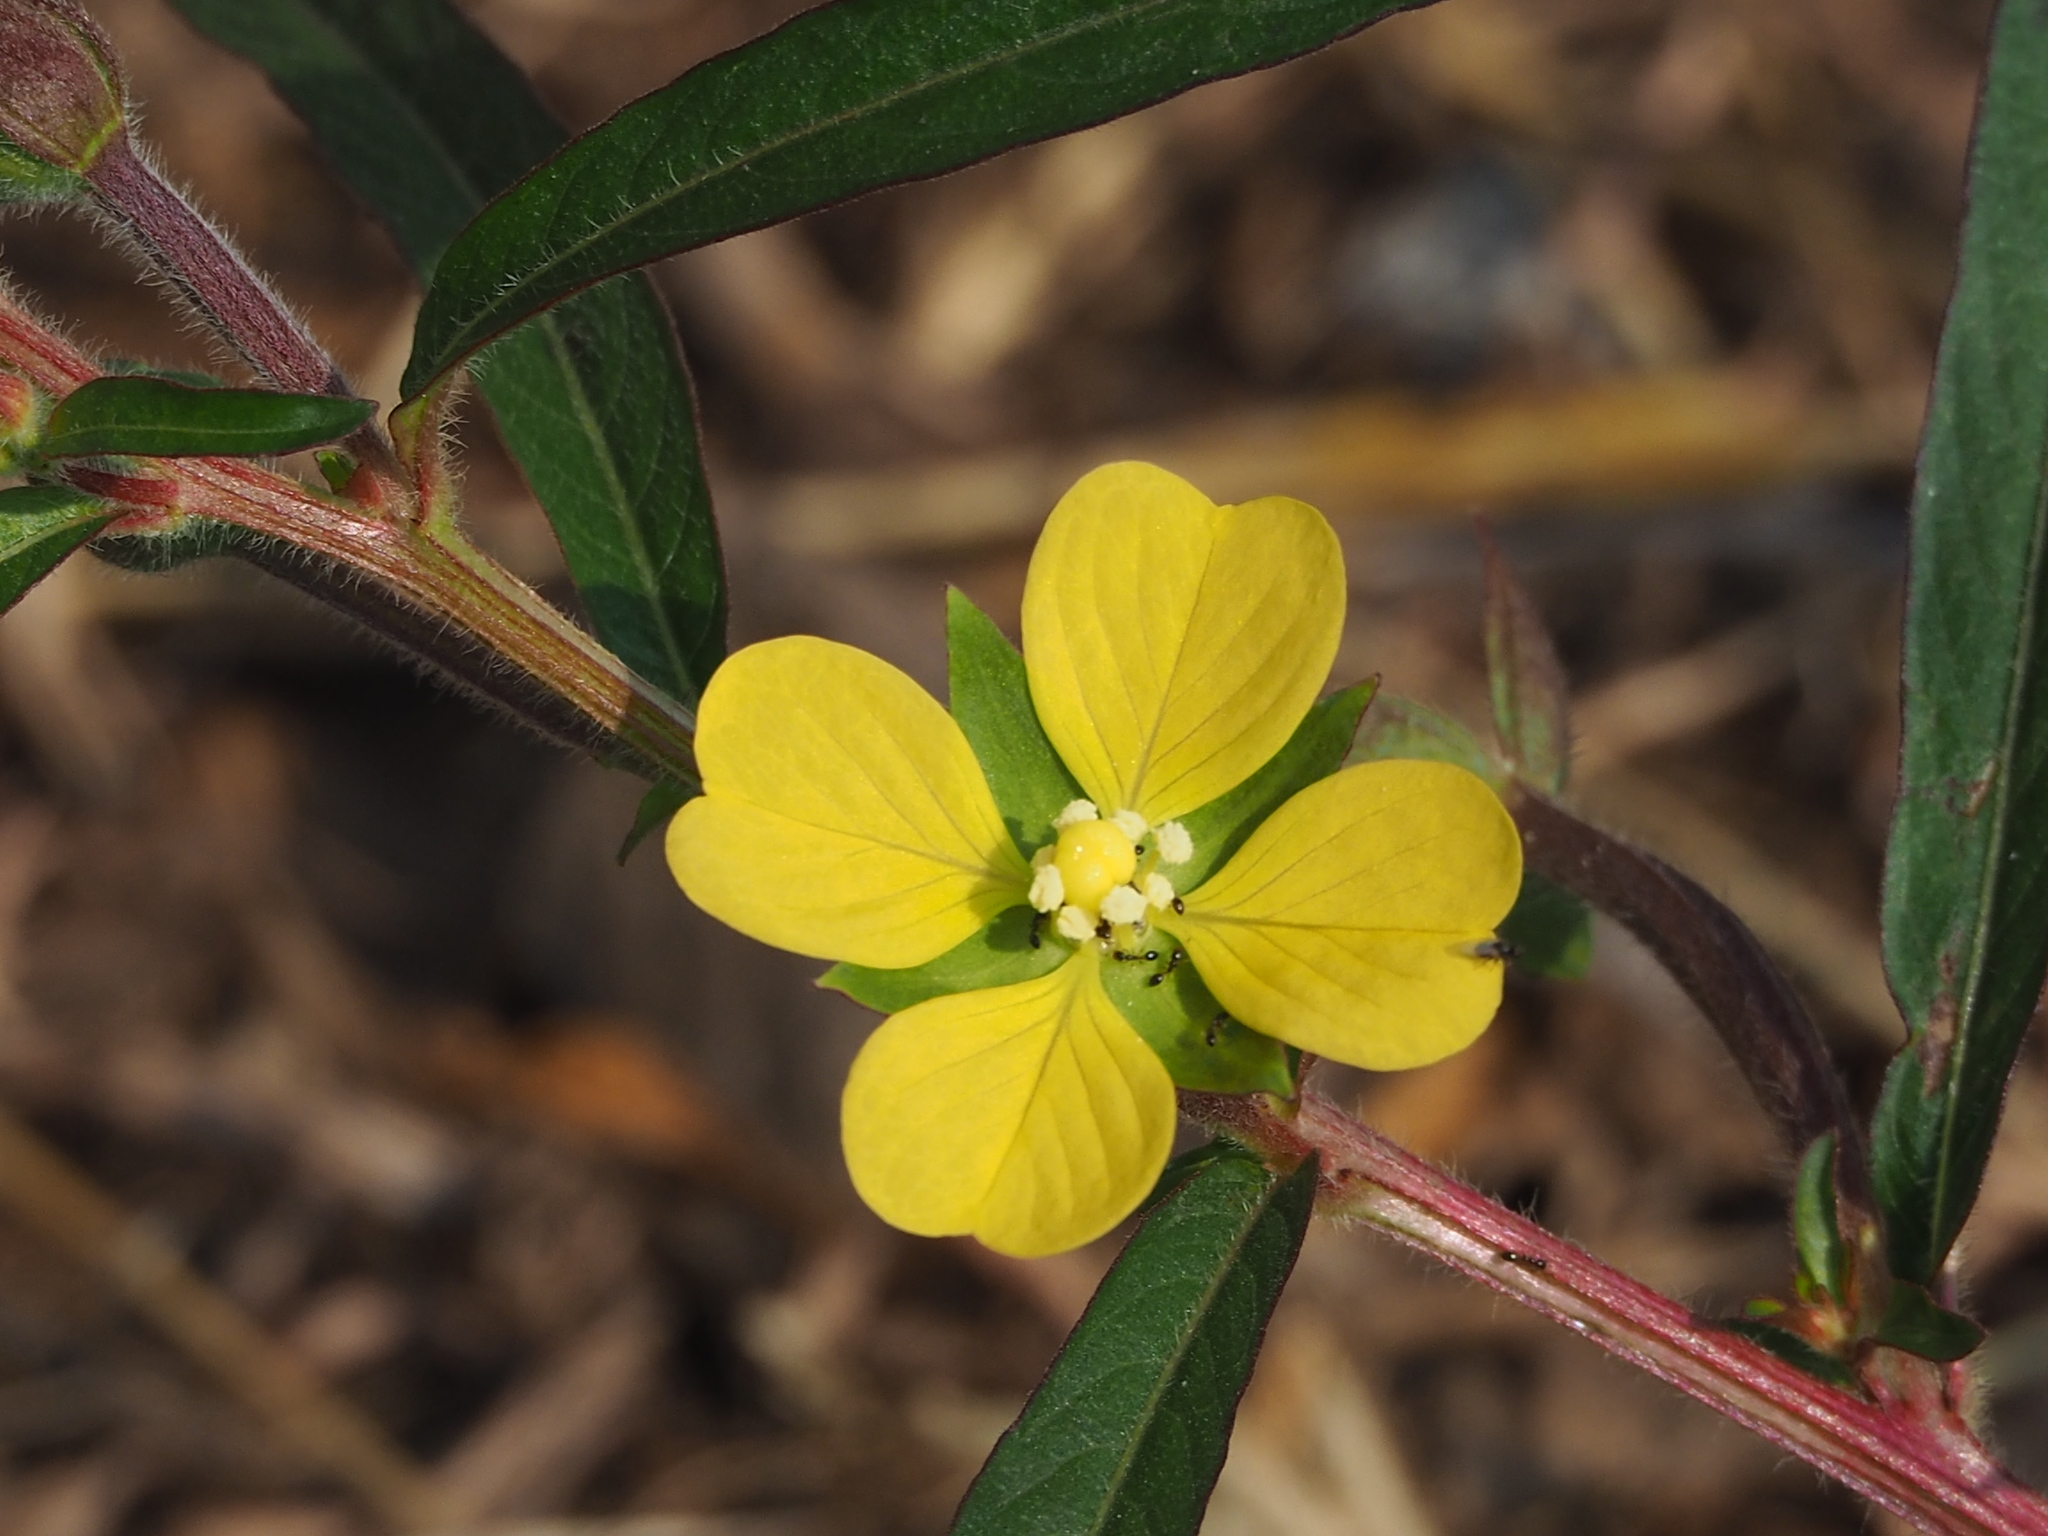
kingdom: Plantae
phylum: Tracheophyta
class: Magnoliopsida
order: Myrtales
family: Onagraceae
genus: Ludwigia
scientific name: Ludwigia octovalvis
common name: Water-primrose
